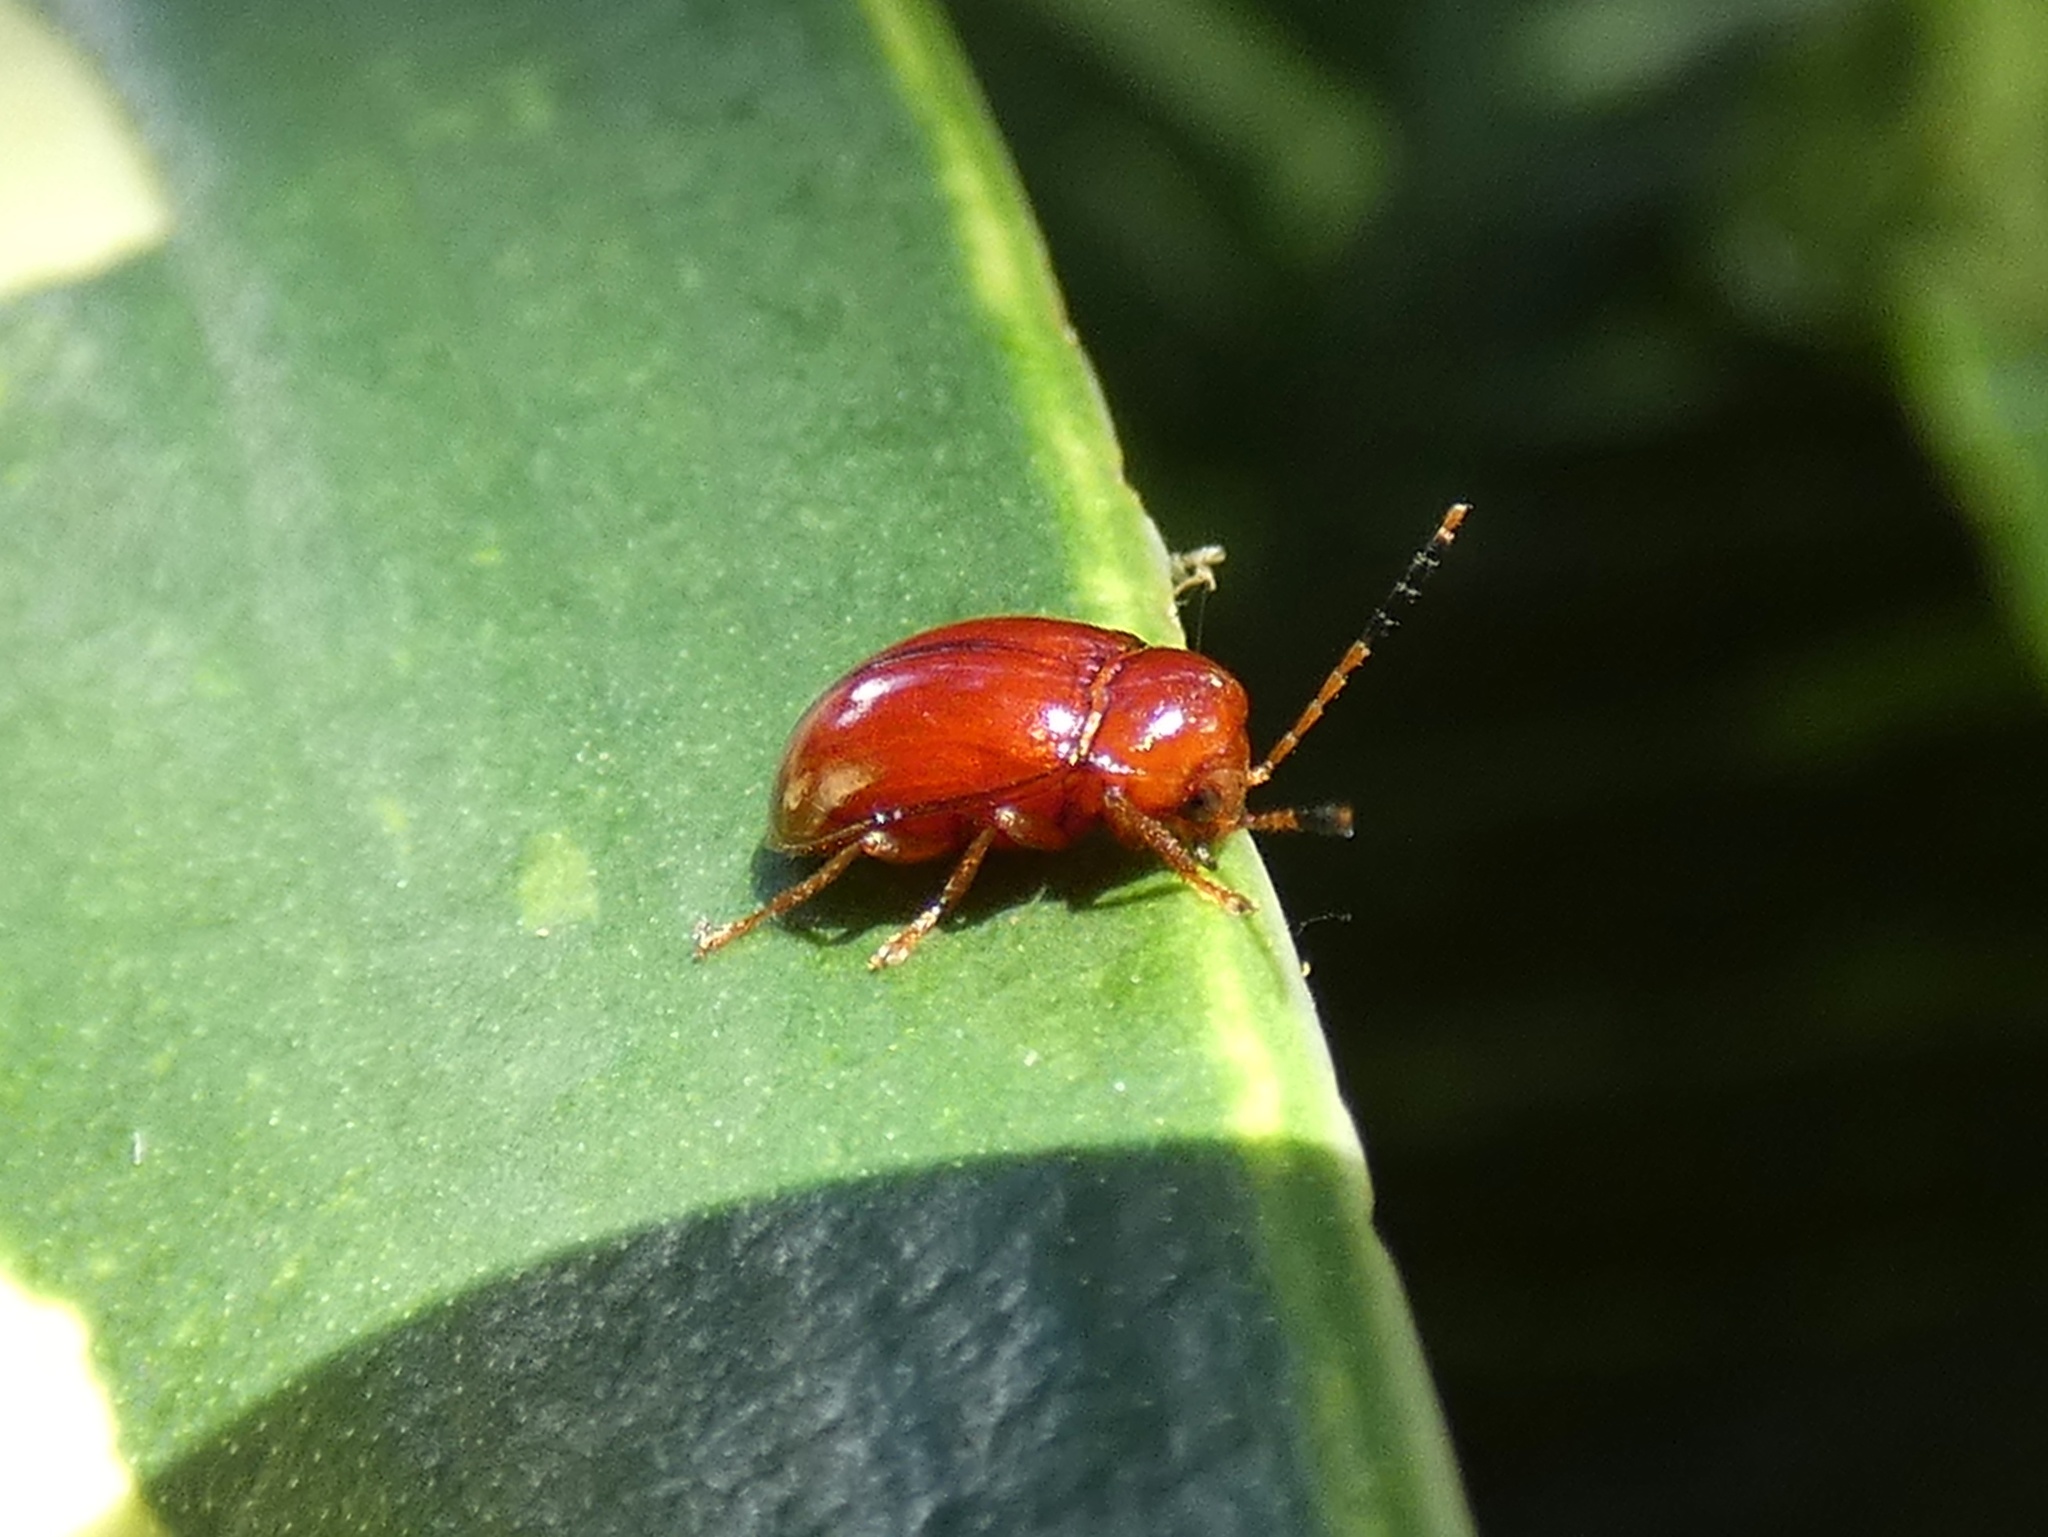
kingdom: Animalia
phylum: Arthropoda
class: Insecta
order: Coleoptera
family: Ptilodactylidae
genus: Ptilodactyla
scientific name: Ptilodactyla
